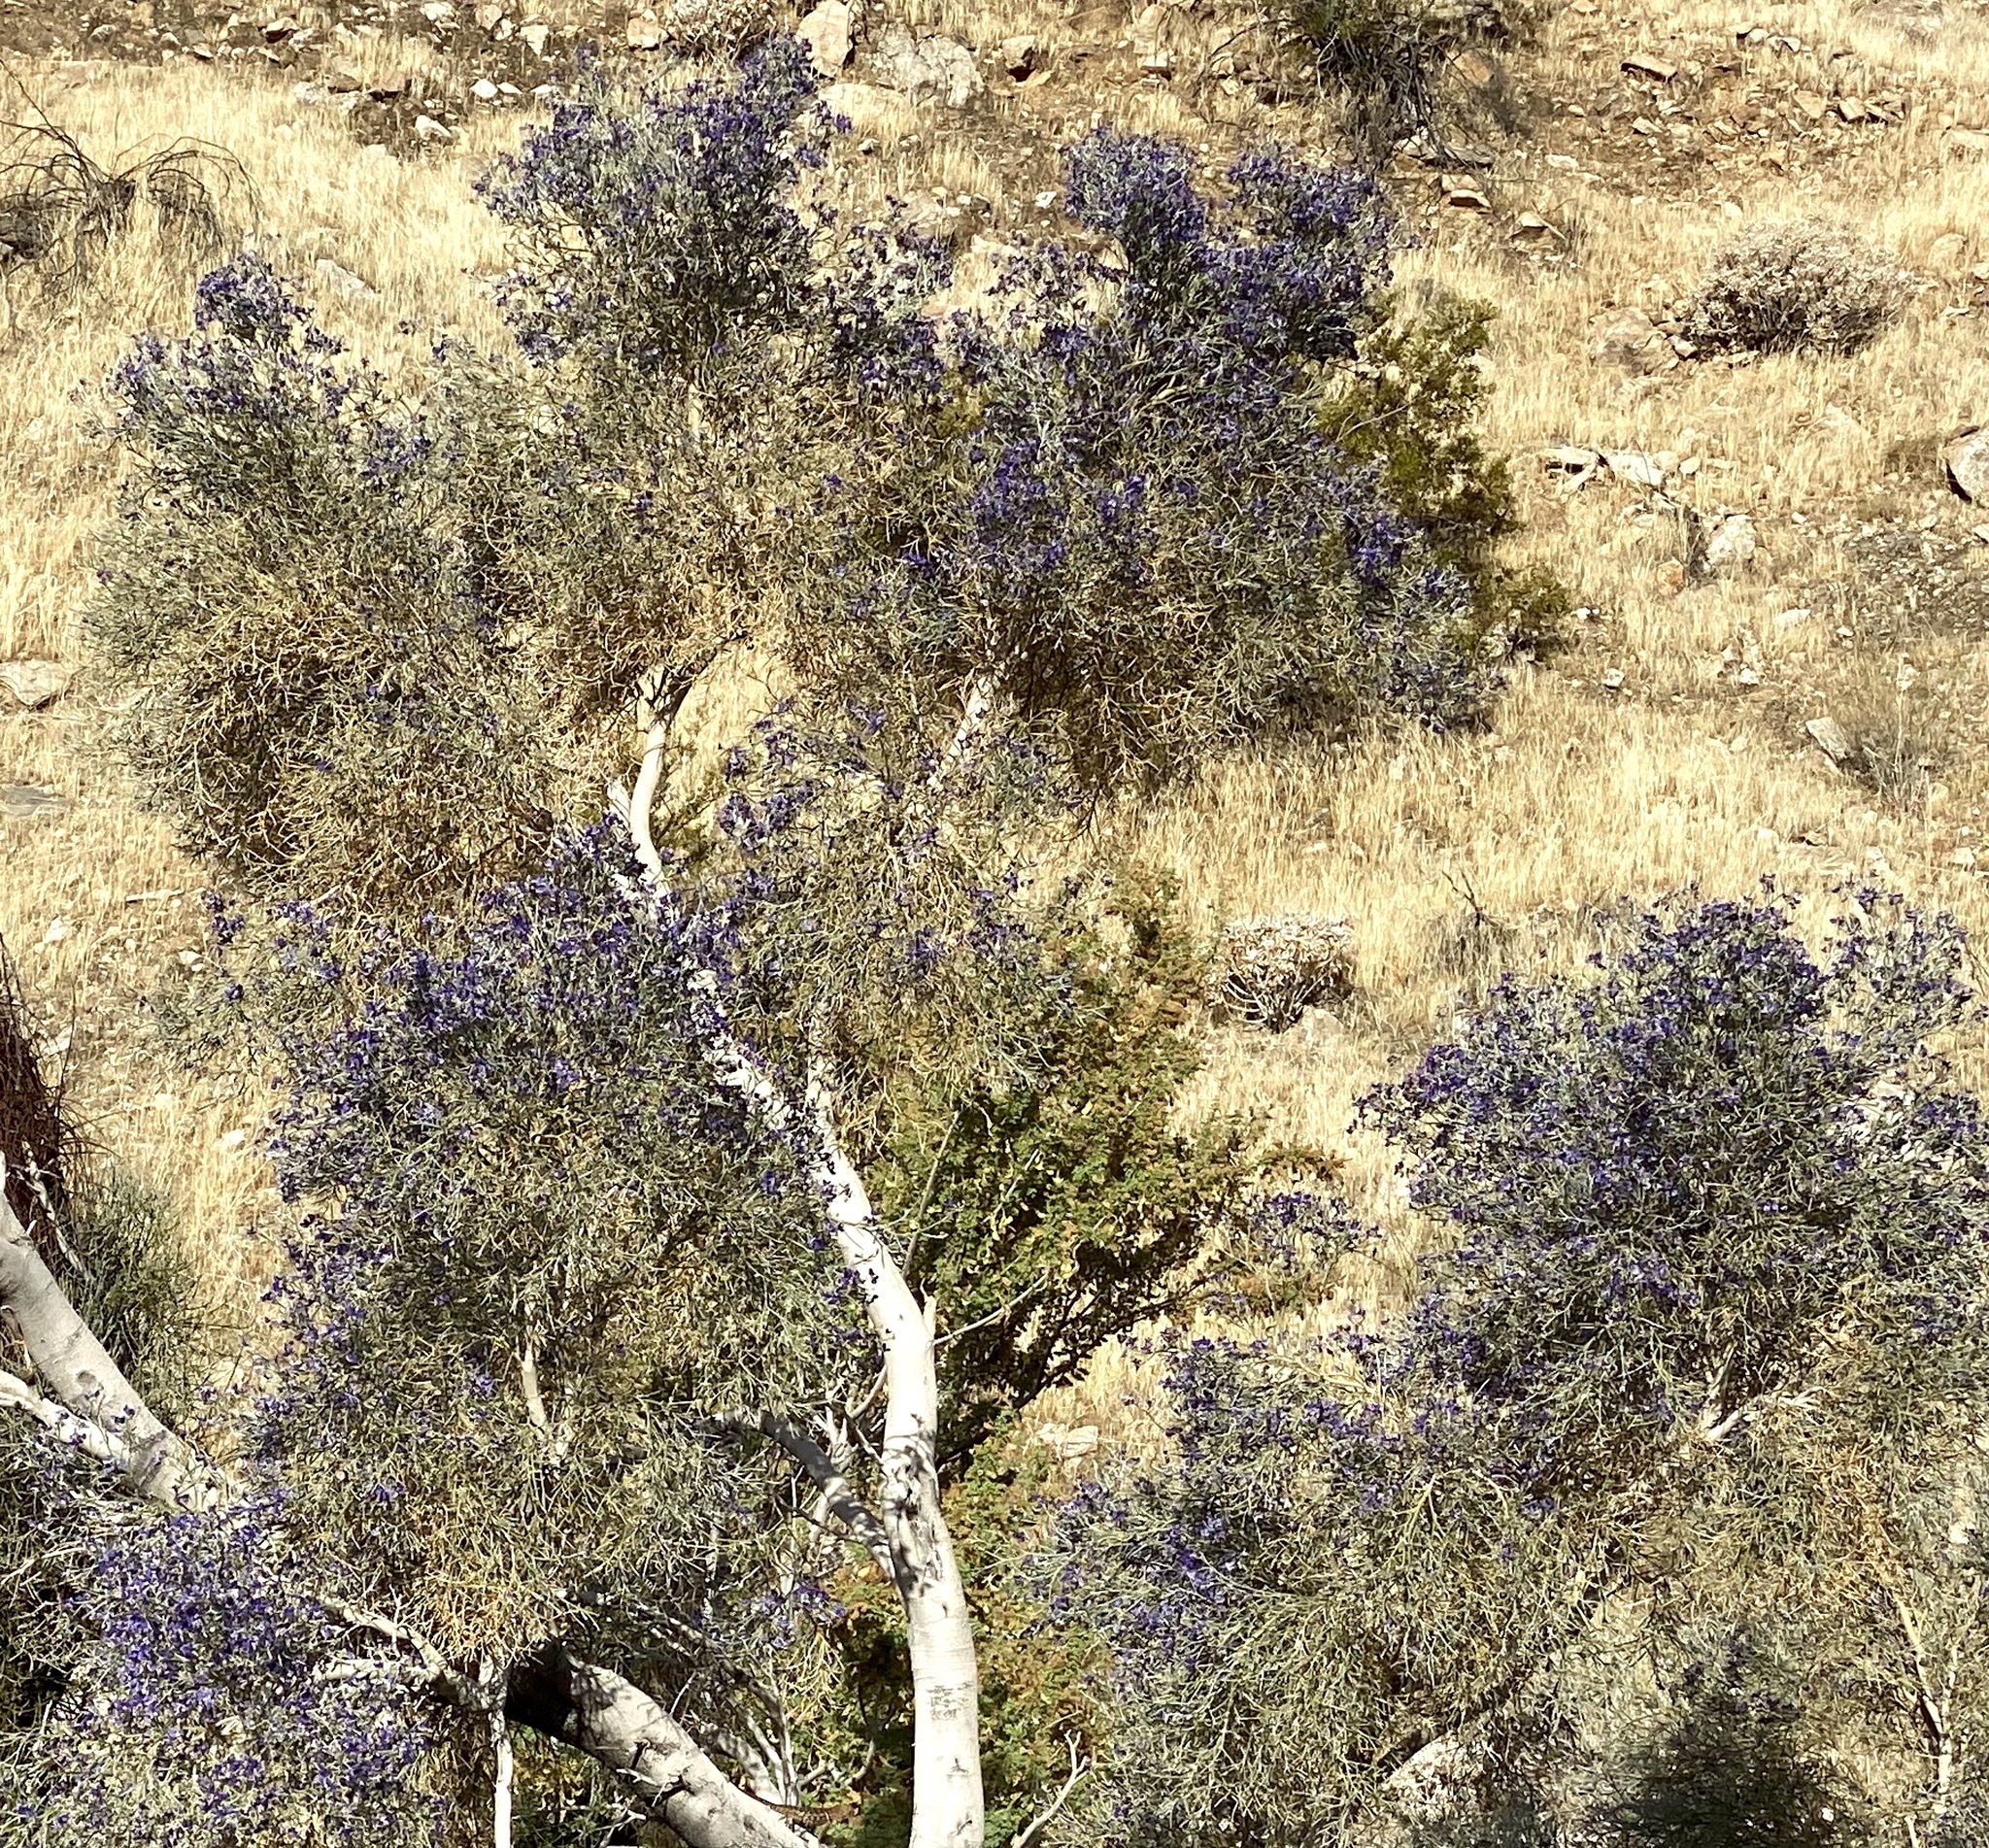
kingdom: Plantae
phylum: Tracheophyta
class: Magnoliopsida
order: Fabales
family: Fabaceae
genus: Psorothamnus
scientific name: Psorothamnus spinosus
